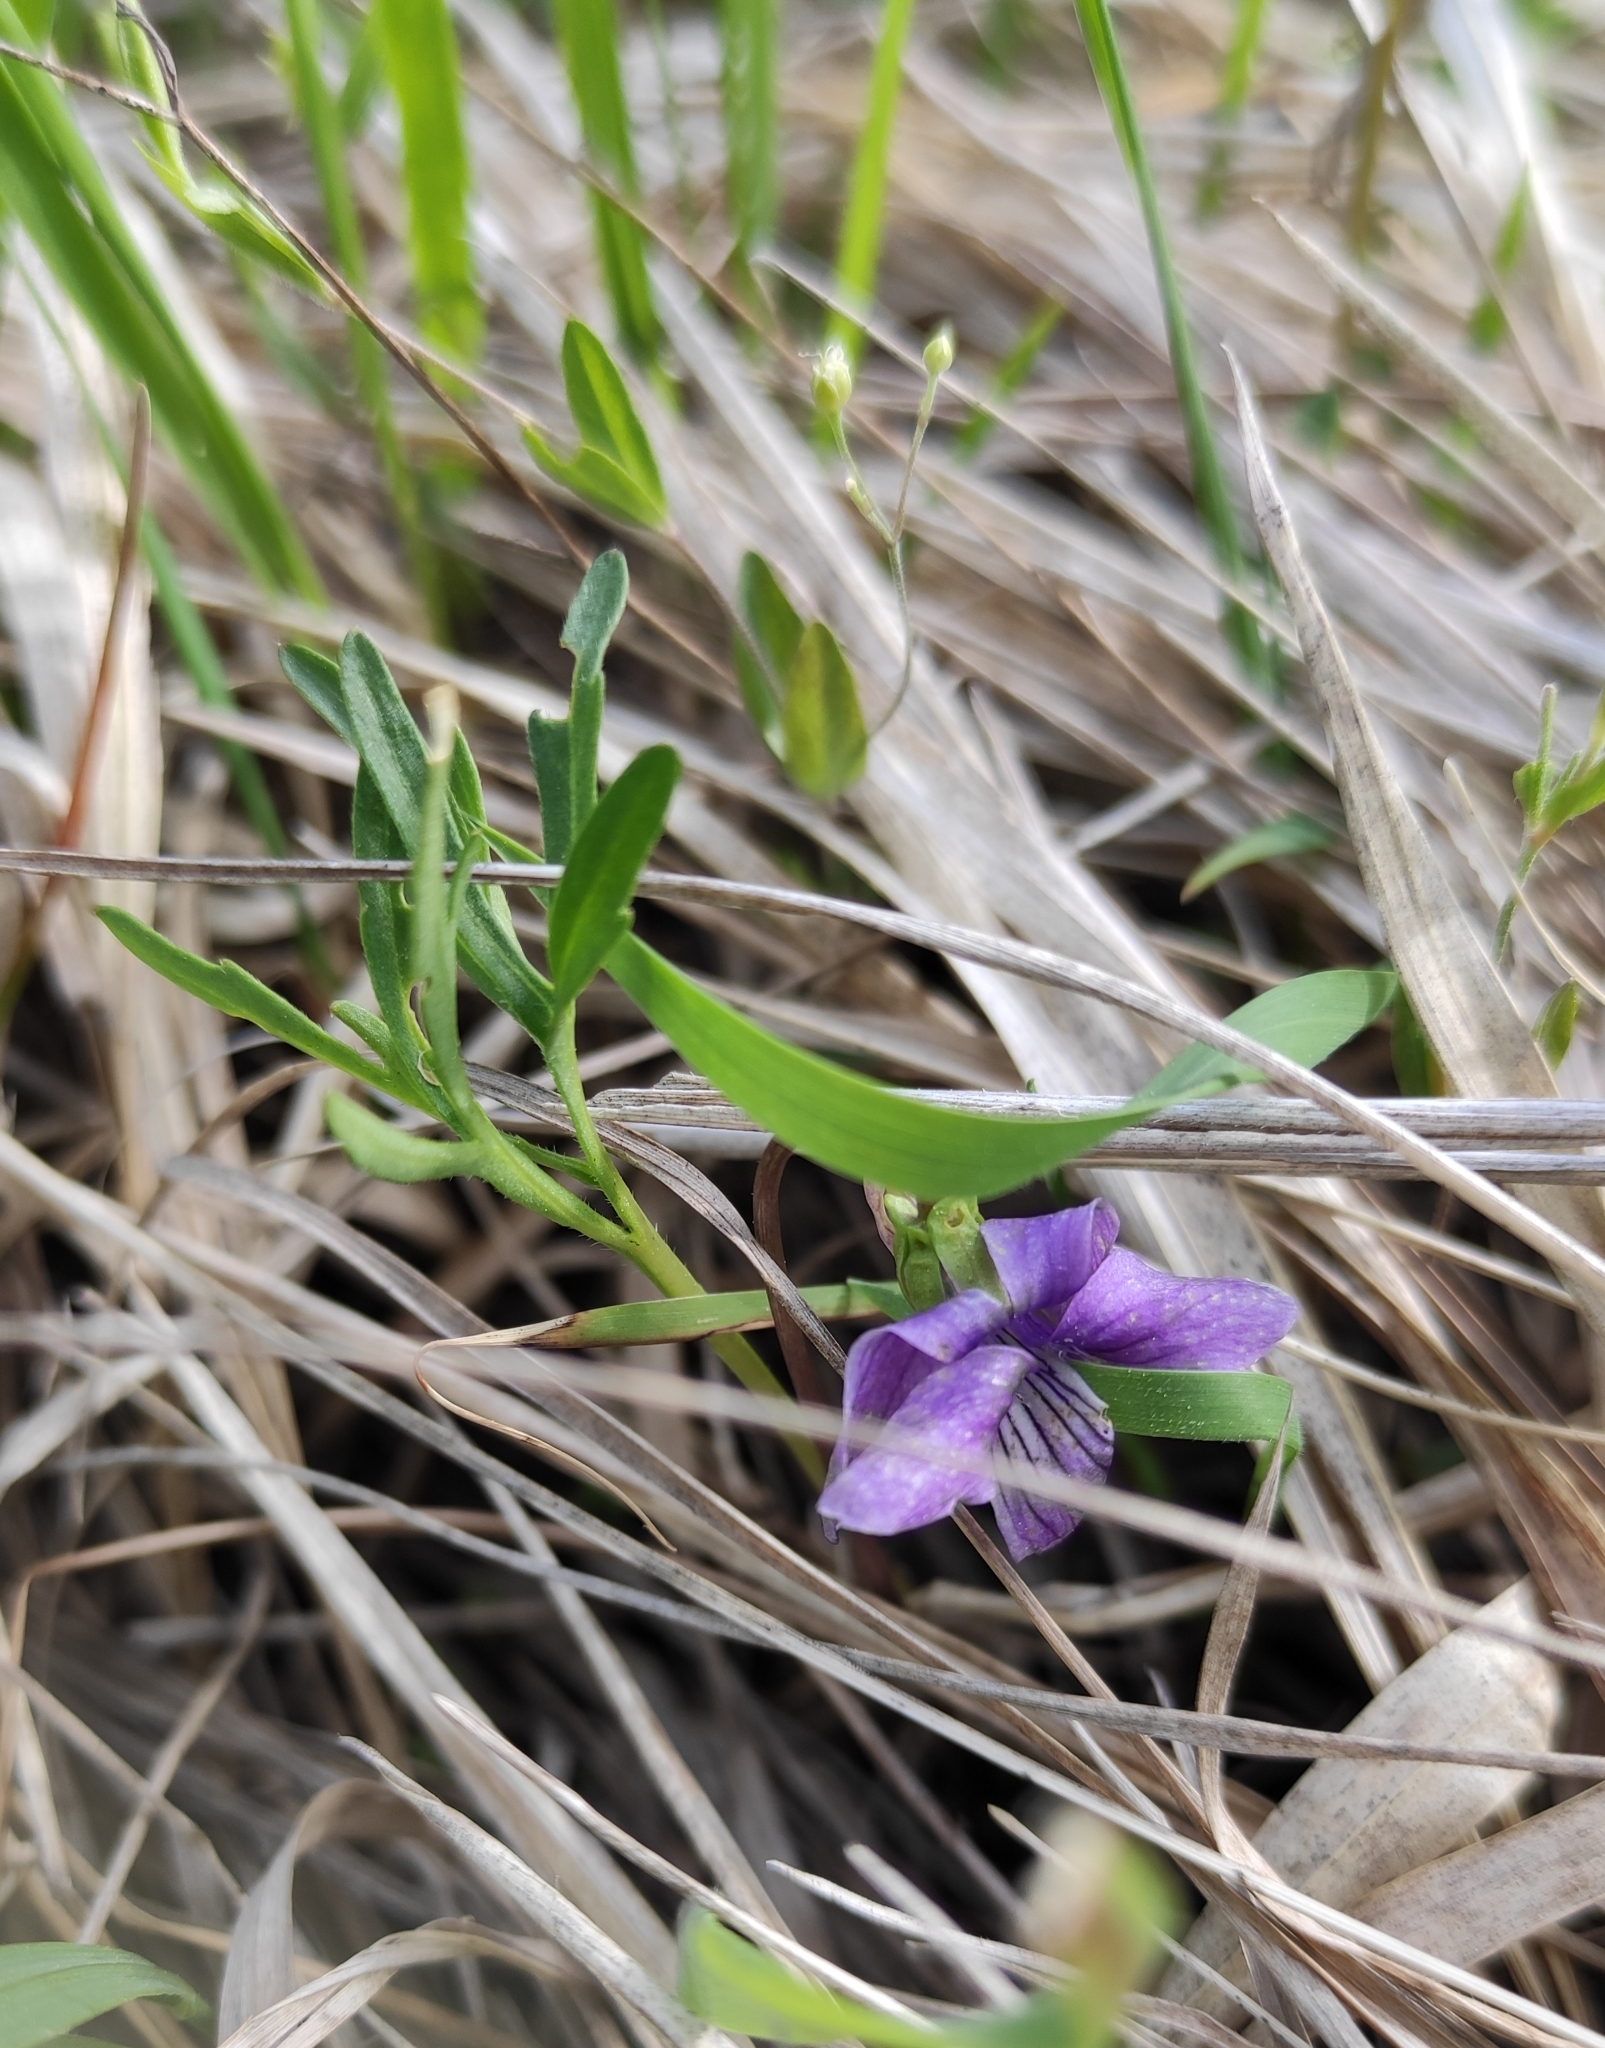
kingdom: Plantae
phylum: Tracheophyta
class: Magnoliopsida
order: Malpighiales
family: Violaceae
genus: Viola
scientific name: Viola multifida
